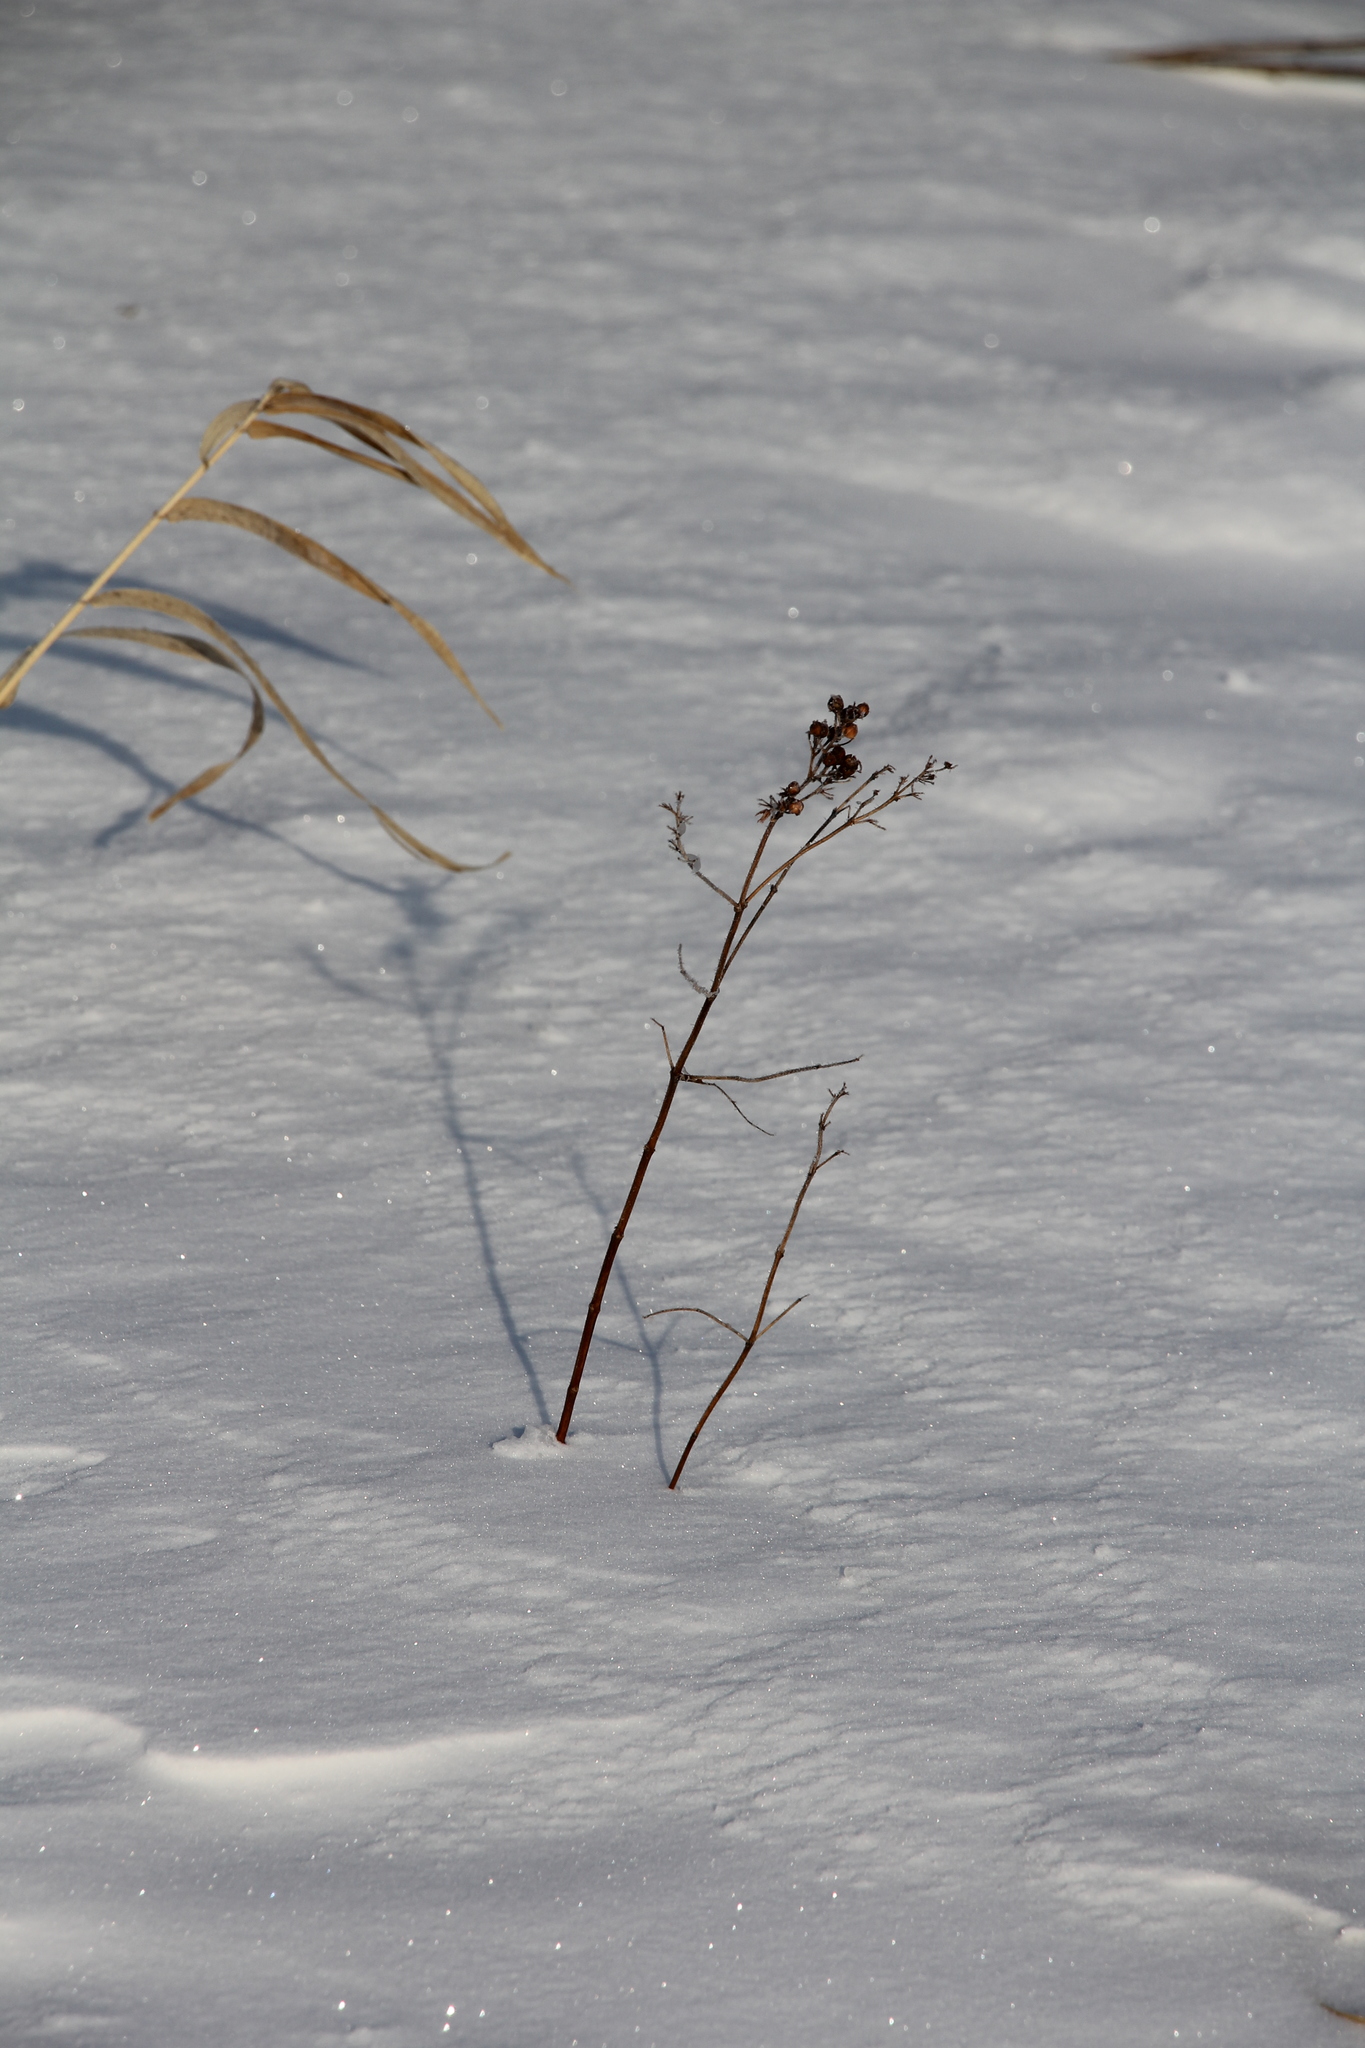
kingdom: Plantae
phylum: Tracheophyta
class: Magnoliopsida
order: Ericales
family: Primulaceae
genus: Lysimachia
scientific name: Lysimachia vulgaris
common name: Yellow loosestrife
